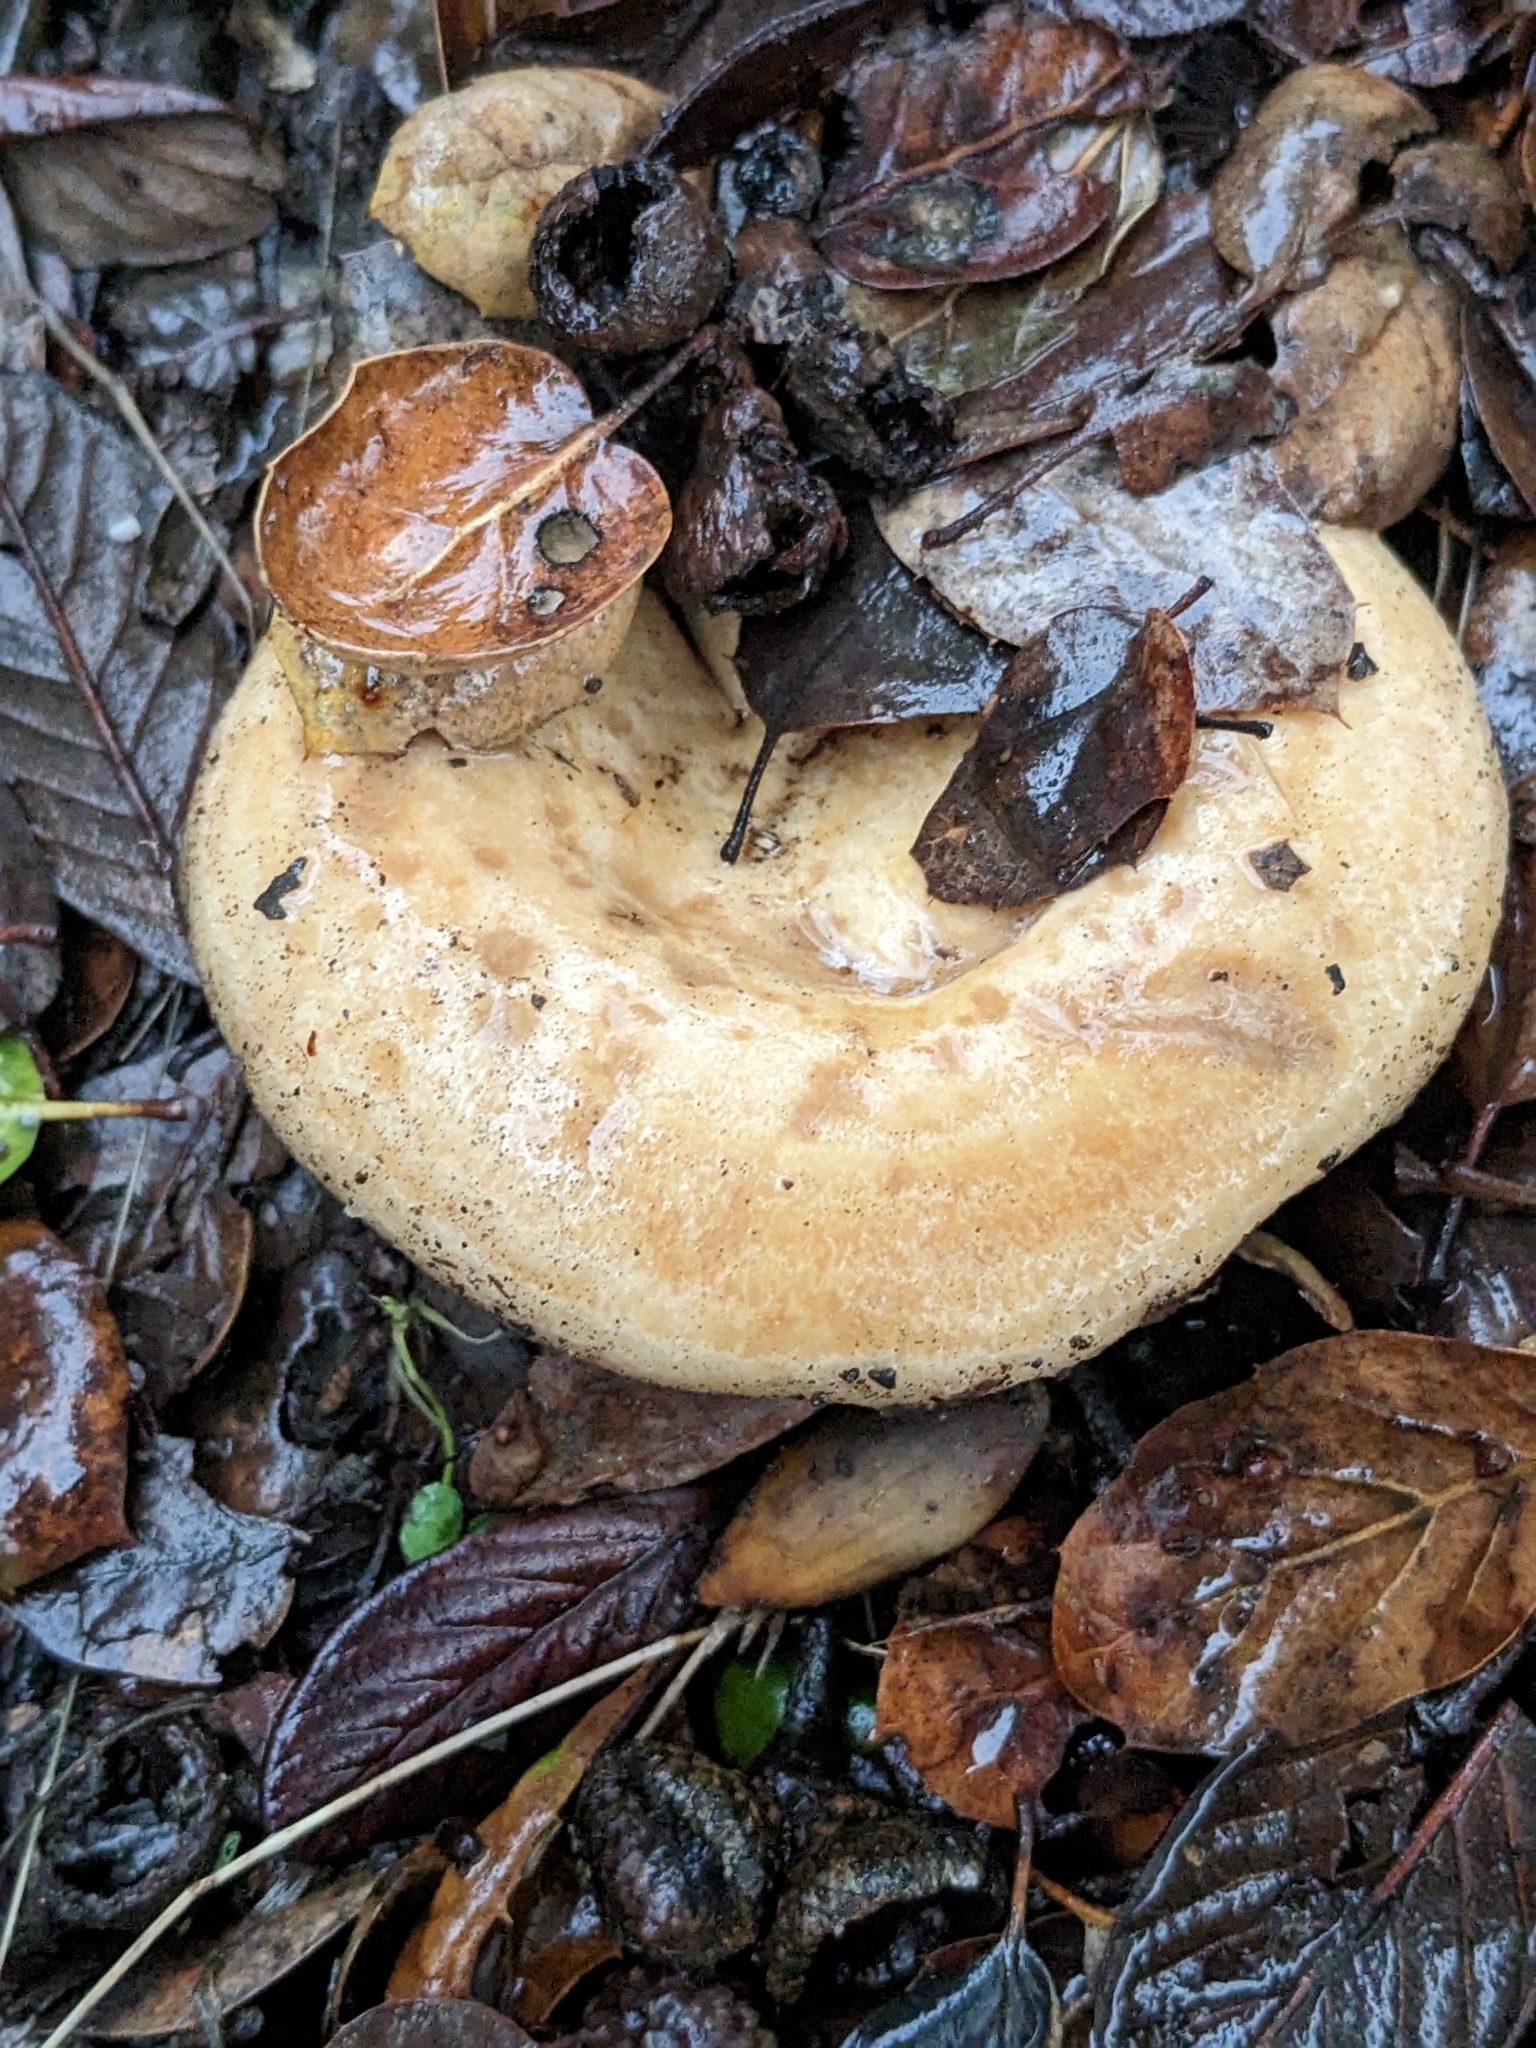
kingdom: Fungi
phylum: Basidiomycota
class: Agaricomycetes
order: Russulales
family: Russulaceae
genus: Lactarius
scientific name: Lactarius alnicola
